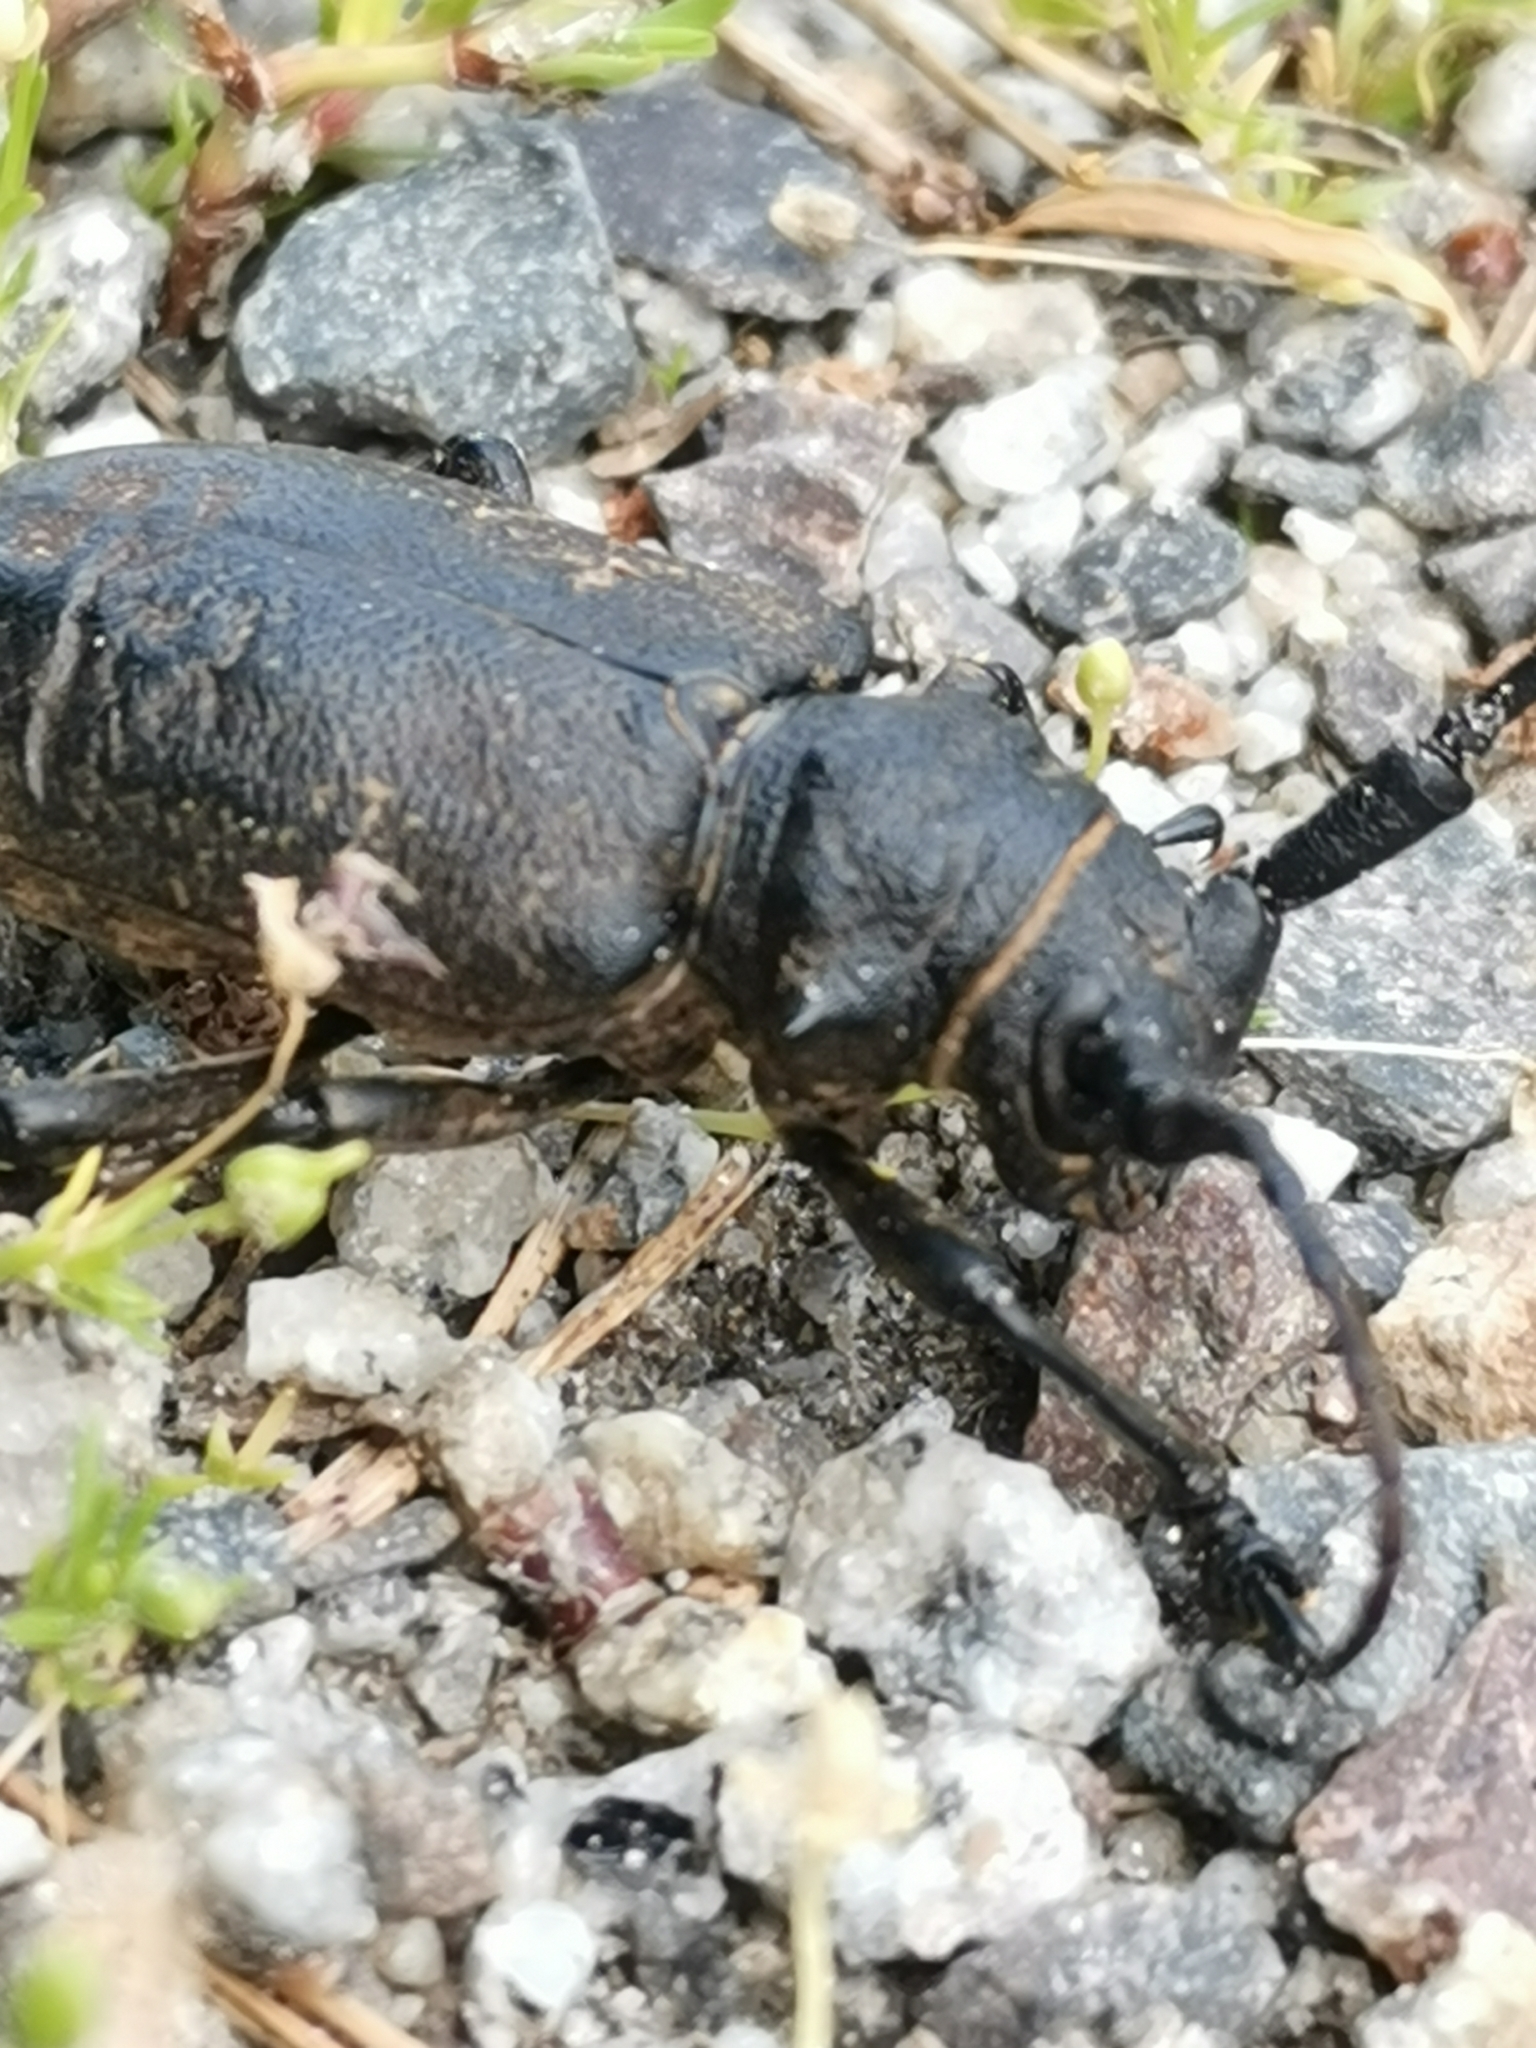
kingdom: Animalia
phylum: Arthropoda
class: Insecta
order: Coleoptera
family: Cerambycidae
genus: Lamia
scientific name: Lamia textor
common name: Weaver beetle
